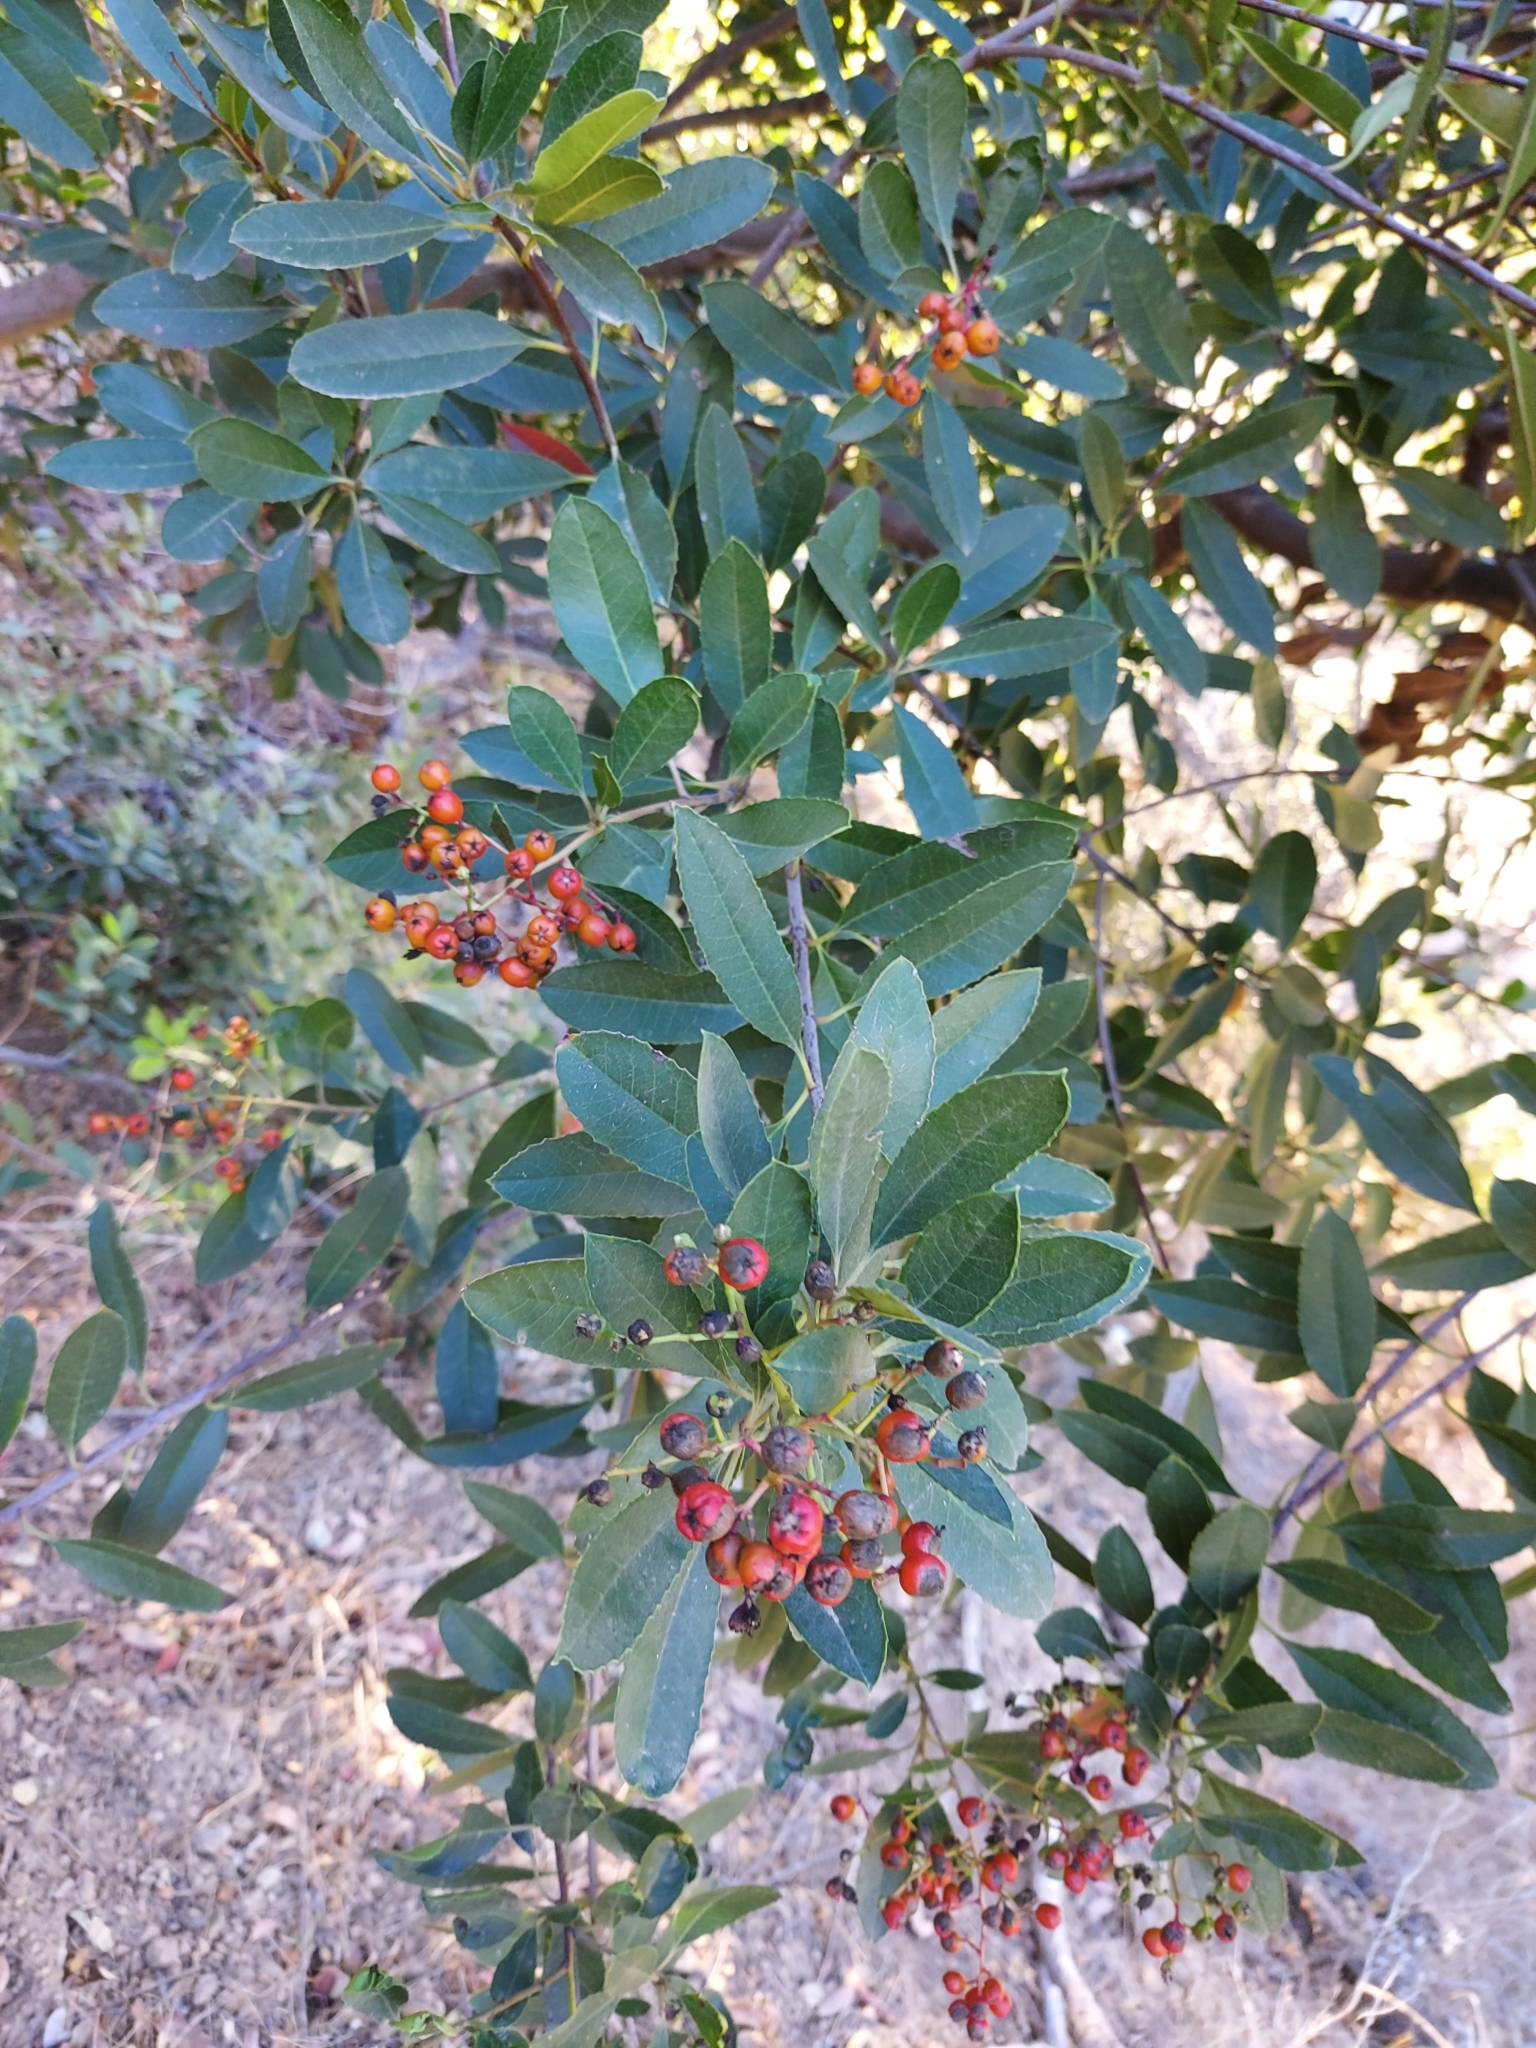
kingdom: Plantae
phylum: Tracheophyta
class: Magnoliopsida
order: Rosales
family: Rosaceae
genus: Heteromeles
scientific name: Heteromeles arbutifolia
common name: California-holly
